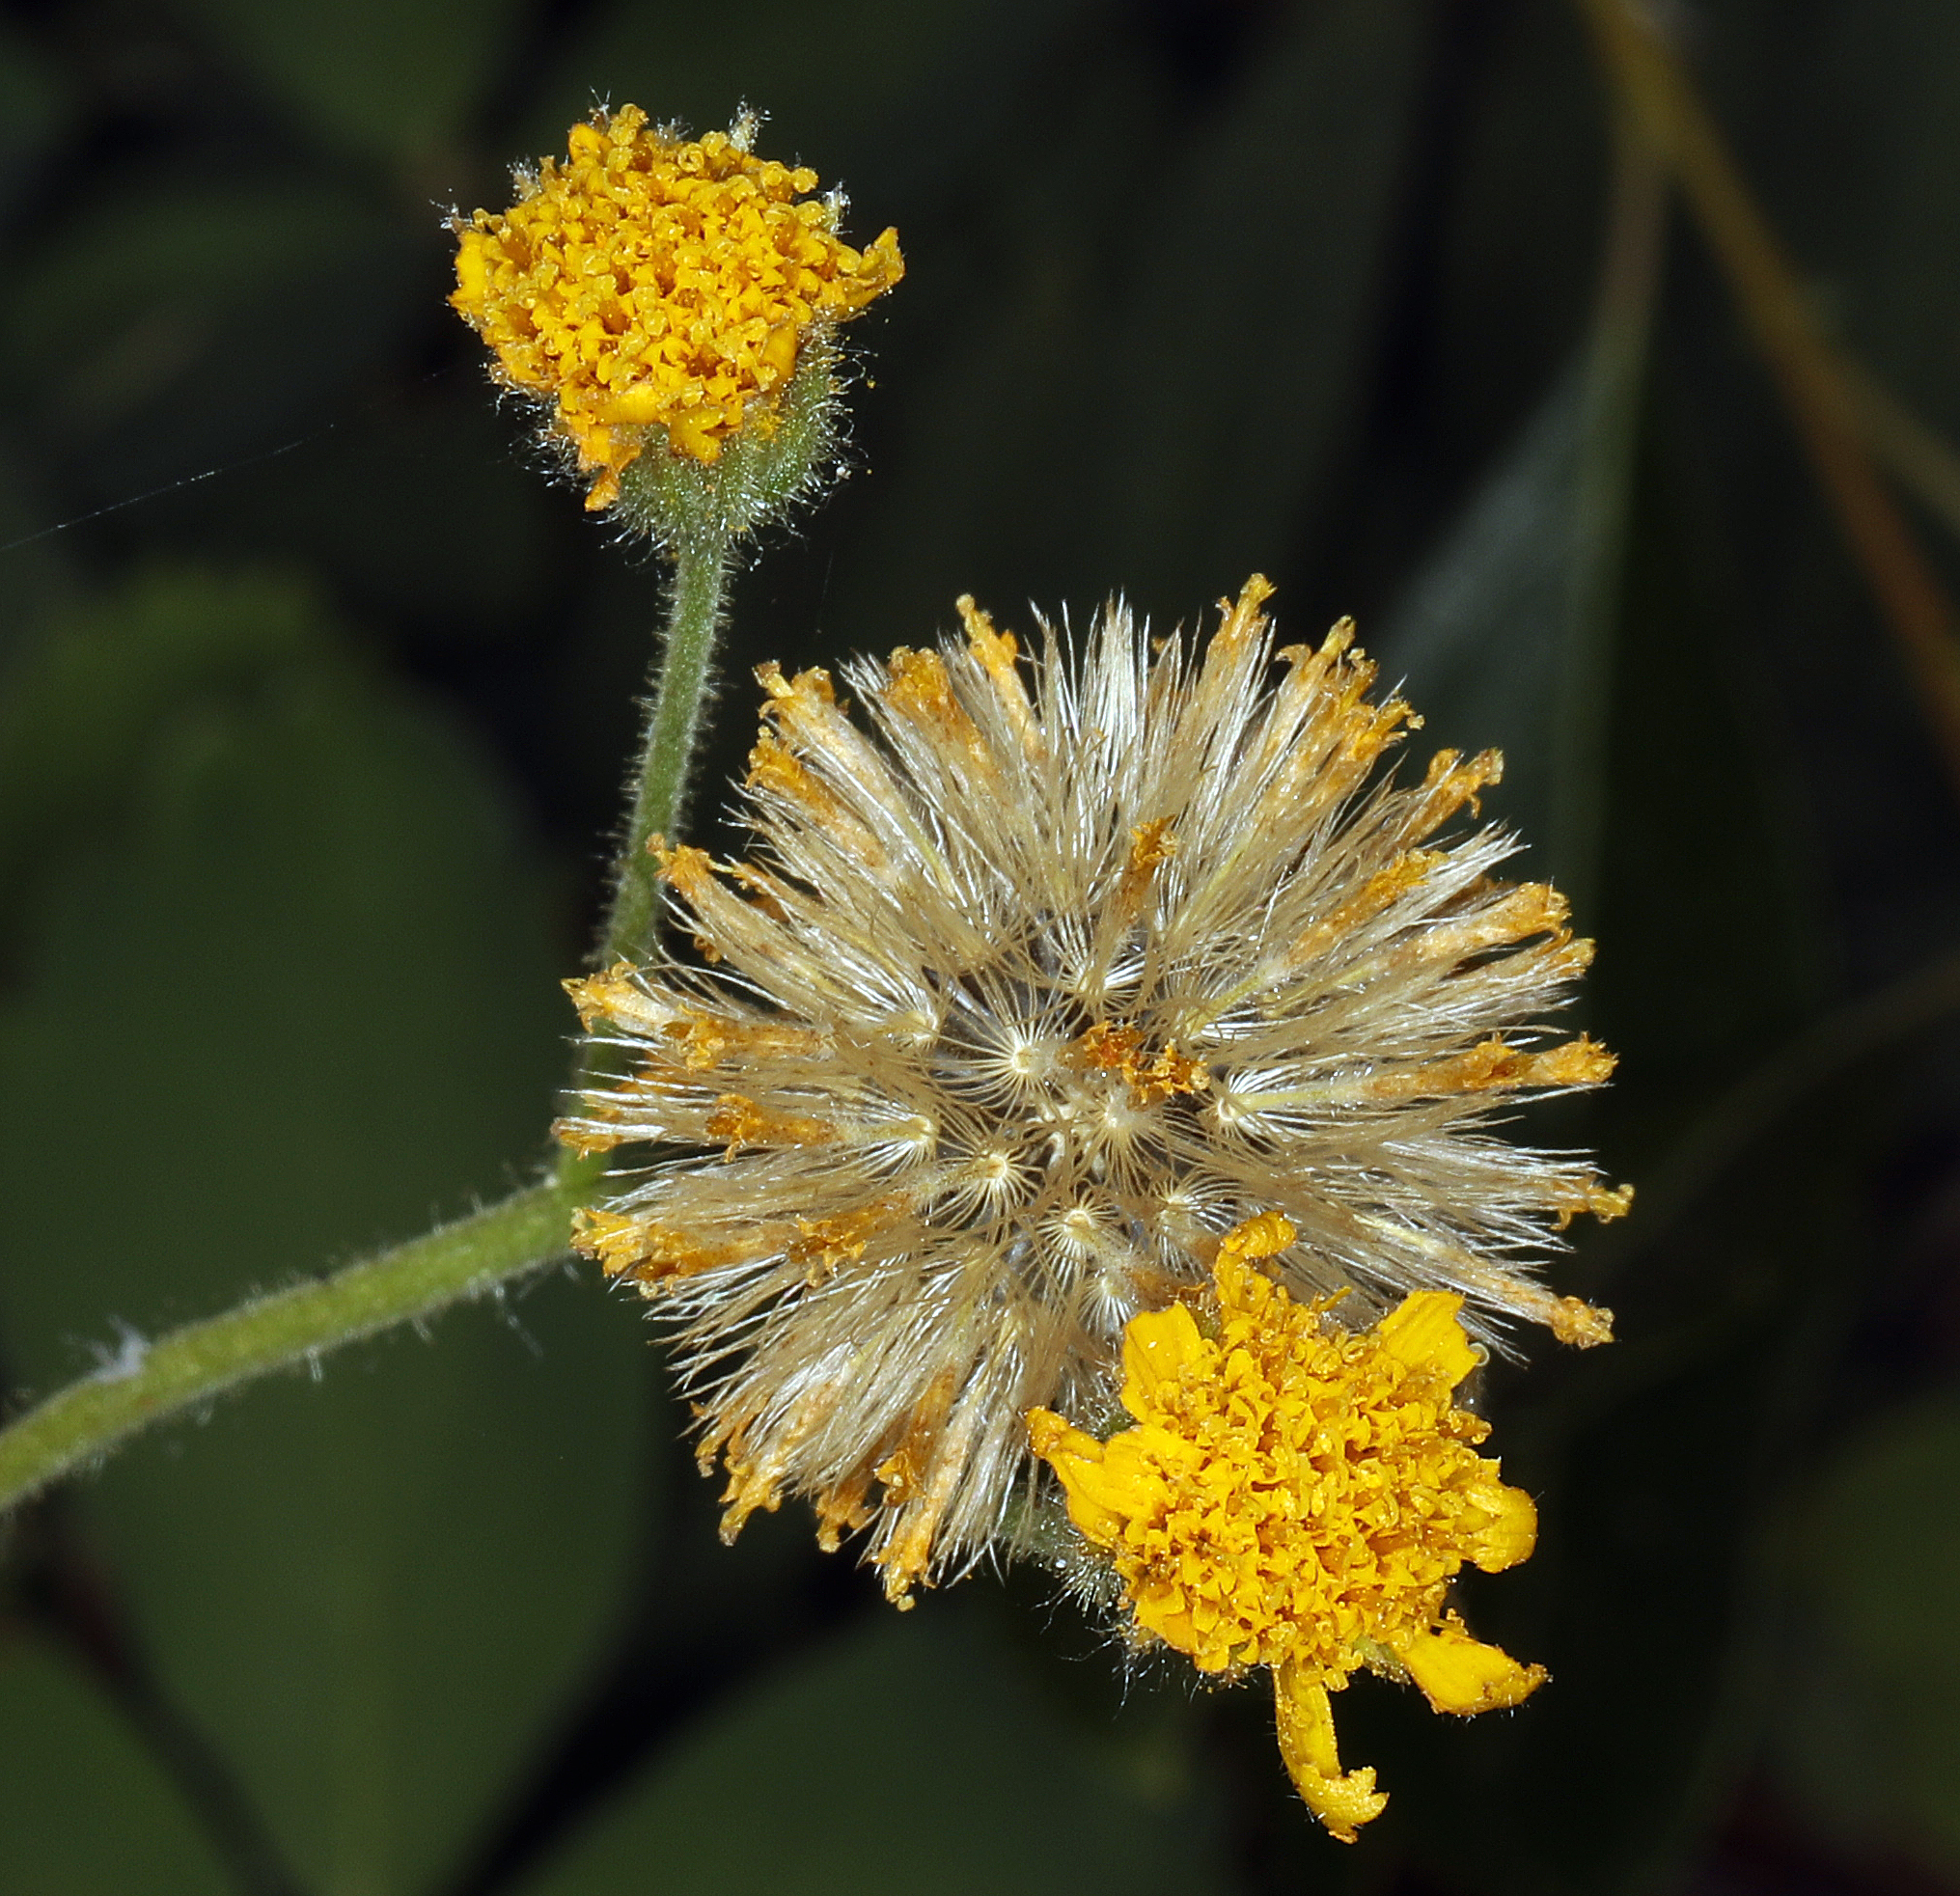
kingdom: Plantae
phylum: Tracheophyta
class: Magnoliopsida
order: Asterales
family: Asteraceae
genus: Arnica
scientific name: Arnica parryi
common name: Parry's arnica
